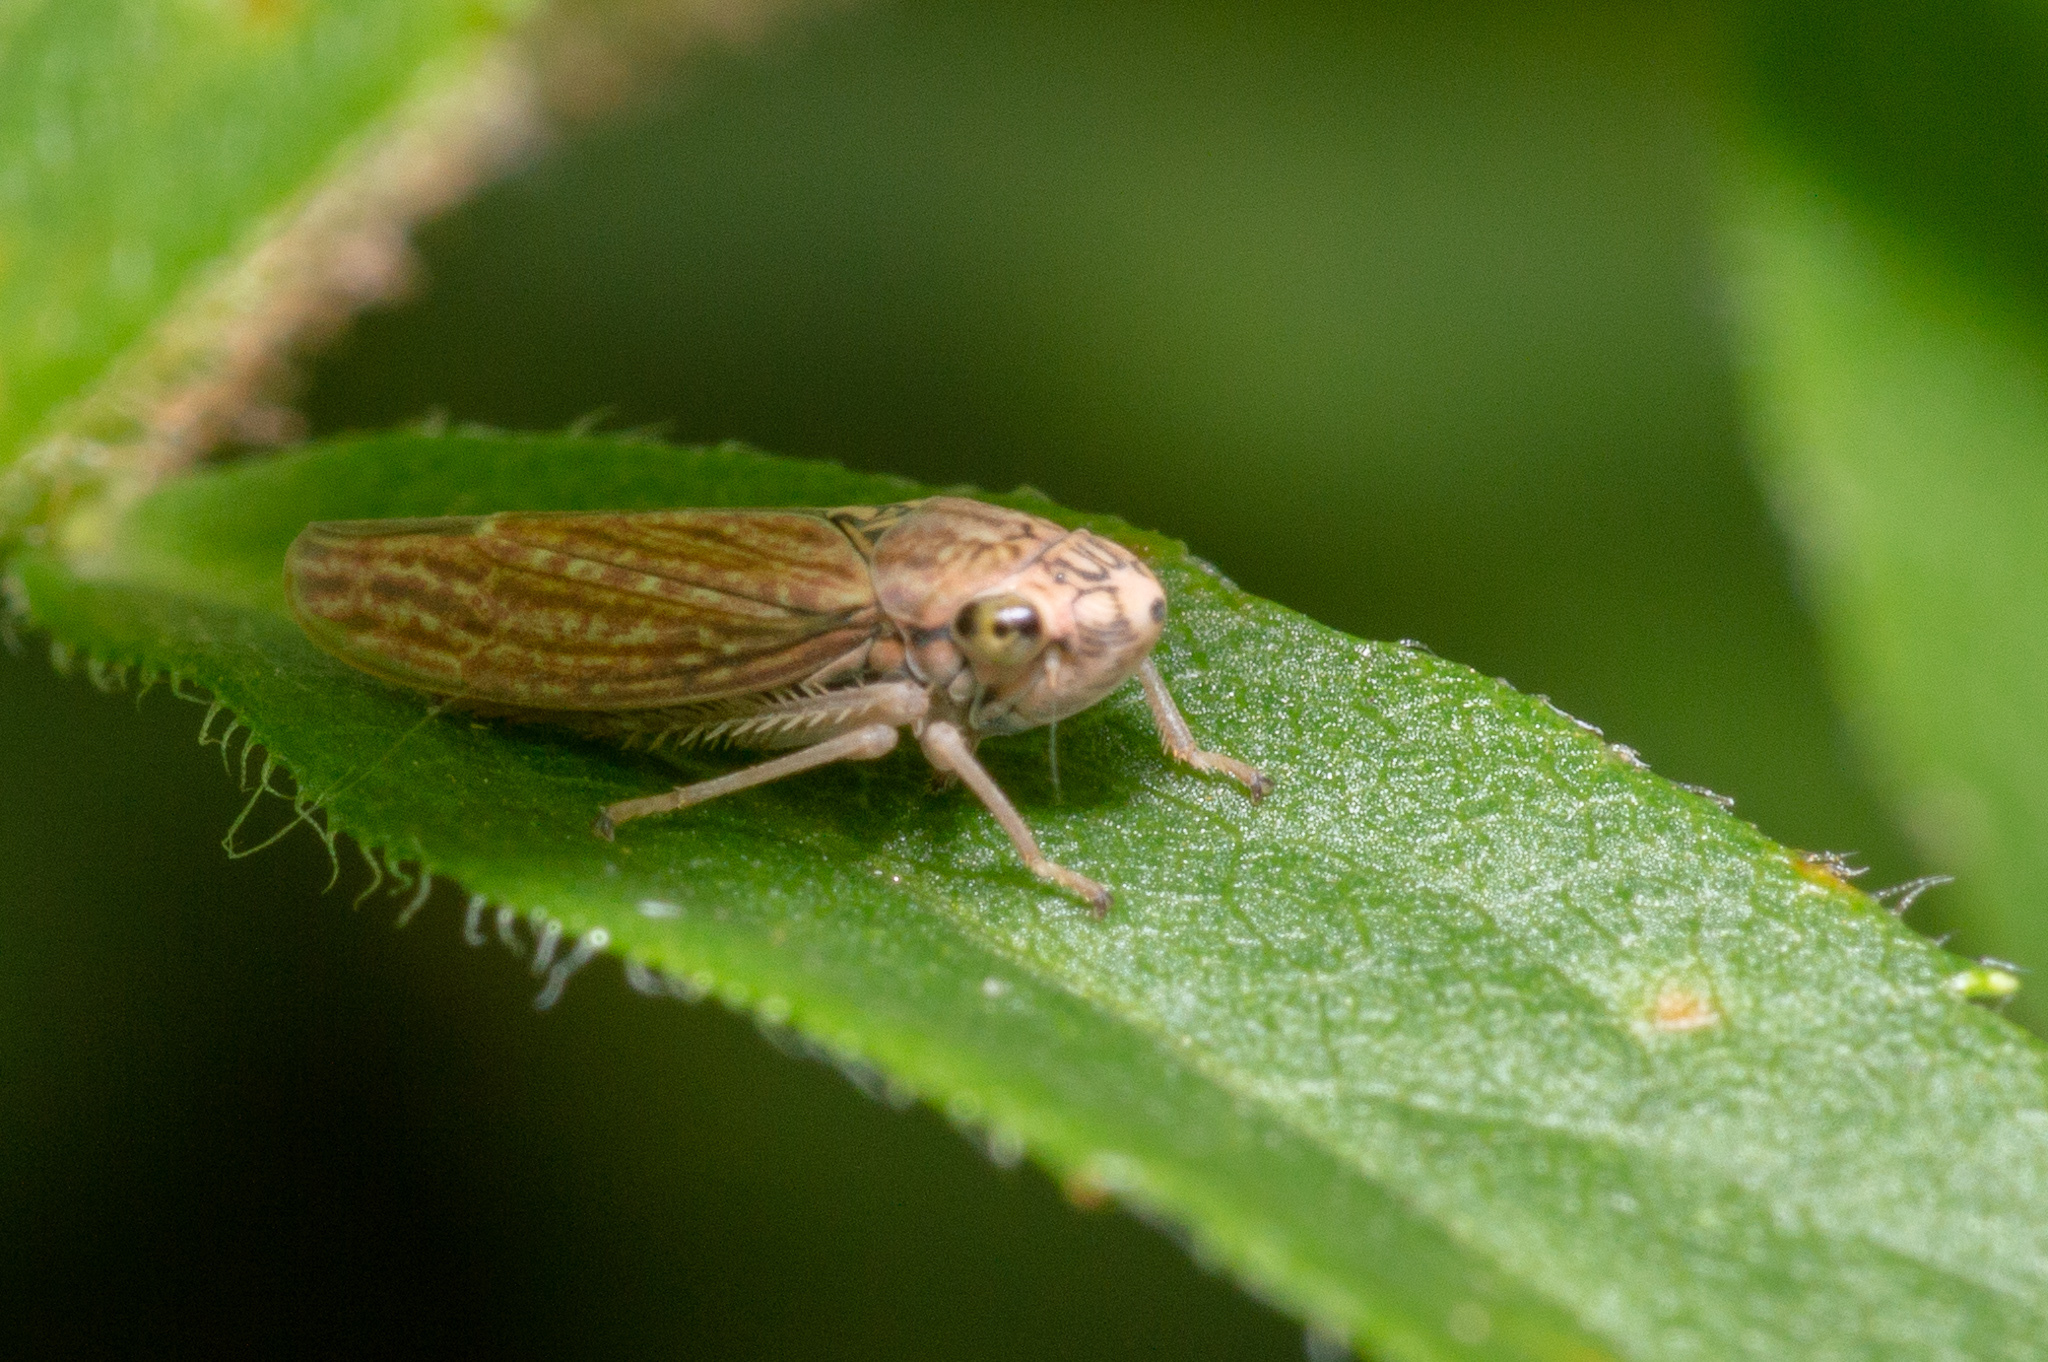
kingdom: Animalia
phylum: Arthropoda
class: Insecta
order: Hemiptera
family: Cicadellidae
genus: Neokolla
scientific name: Neokolla hieroglyphica
